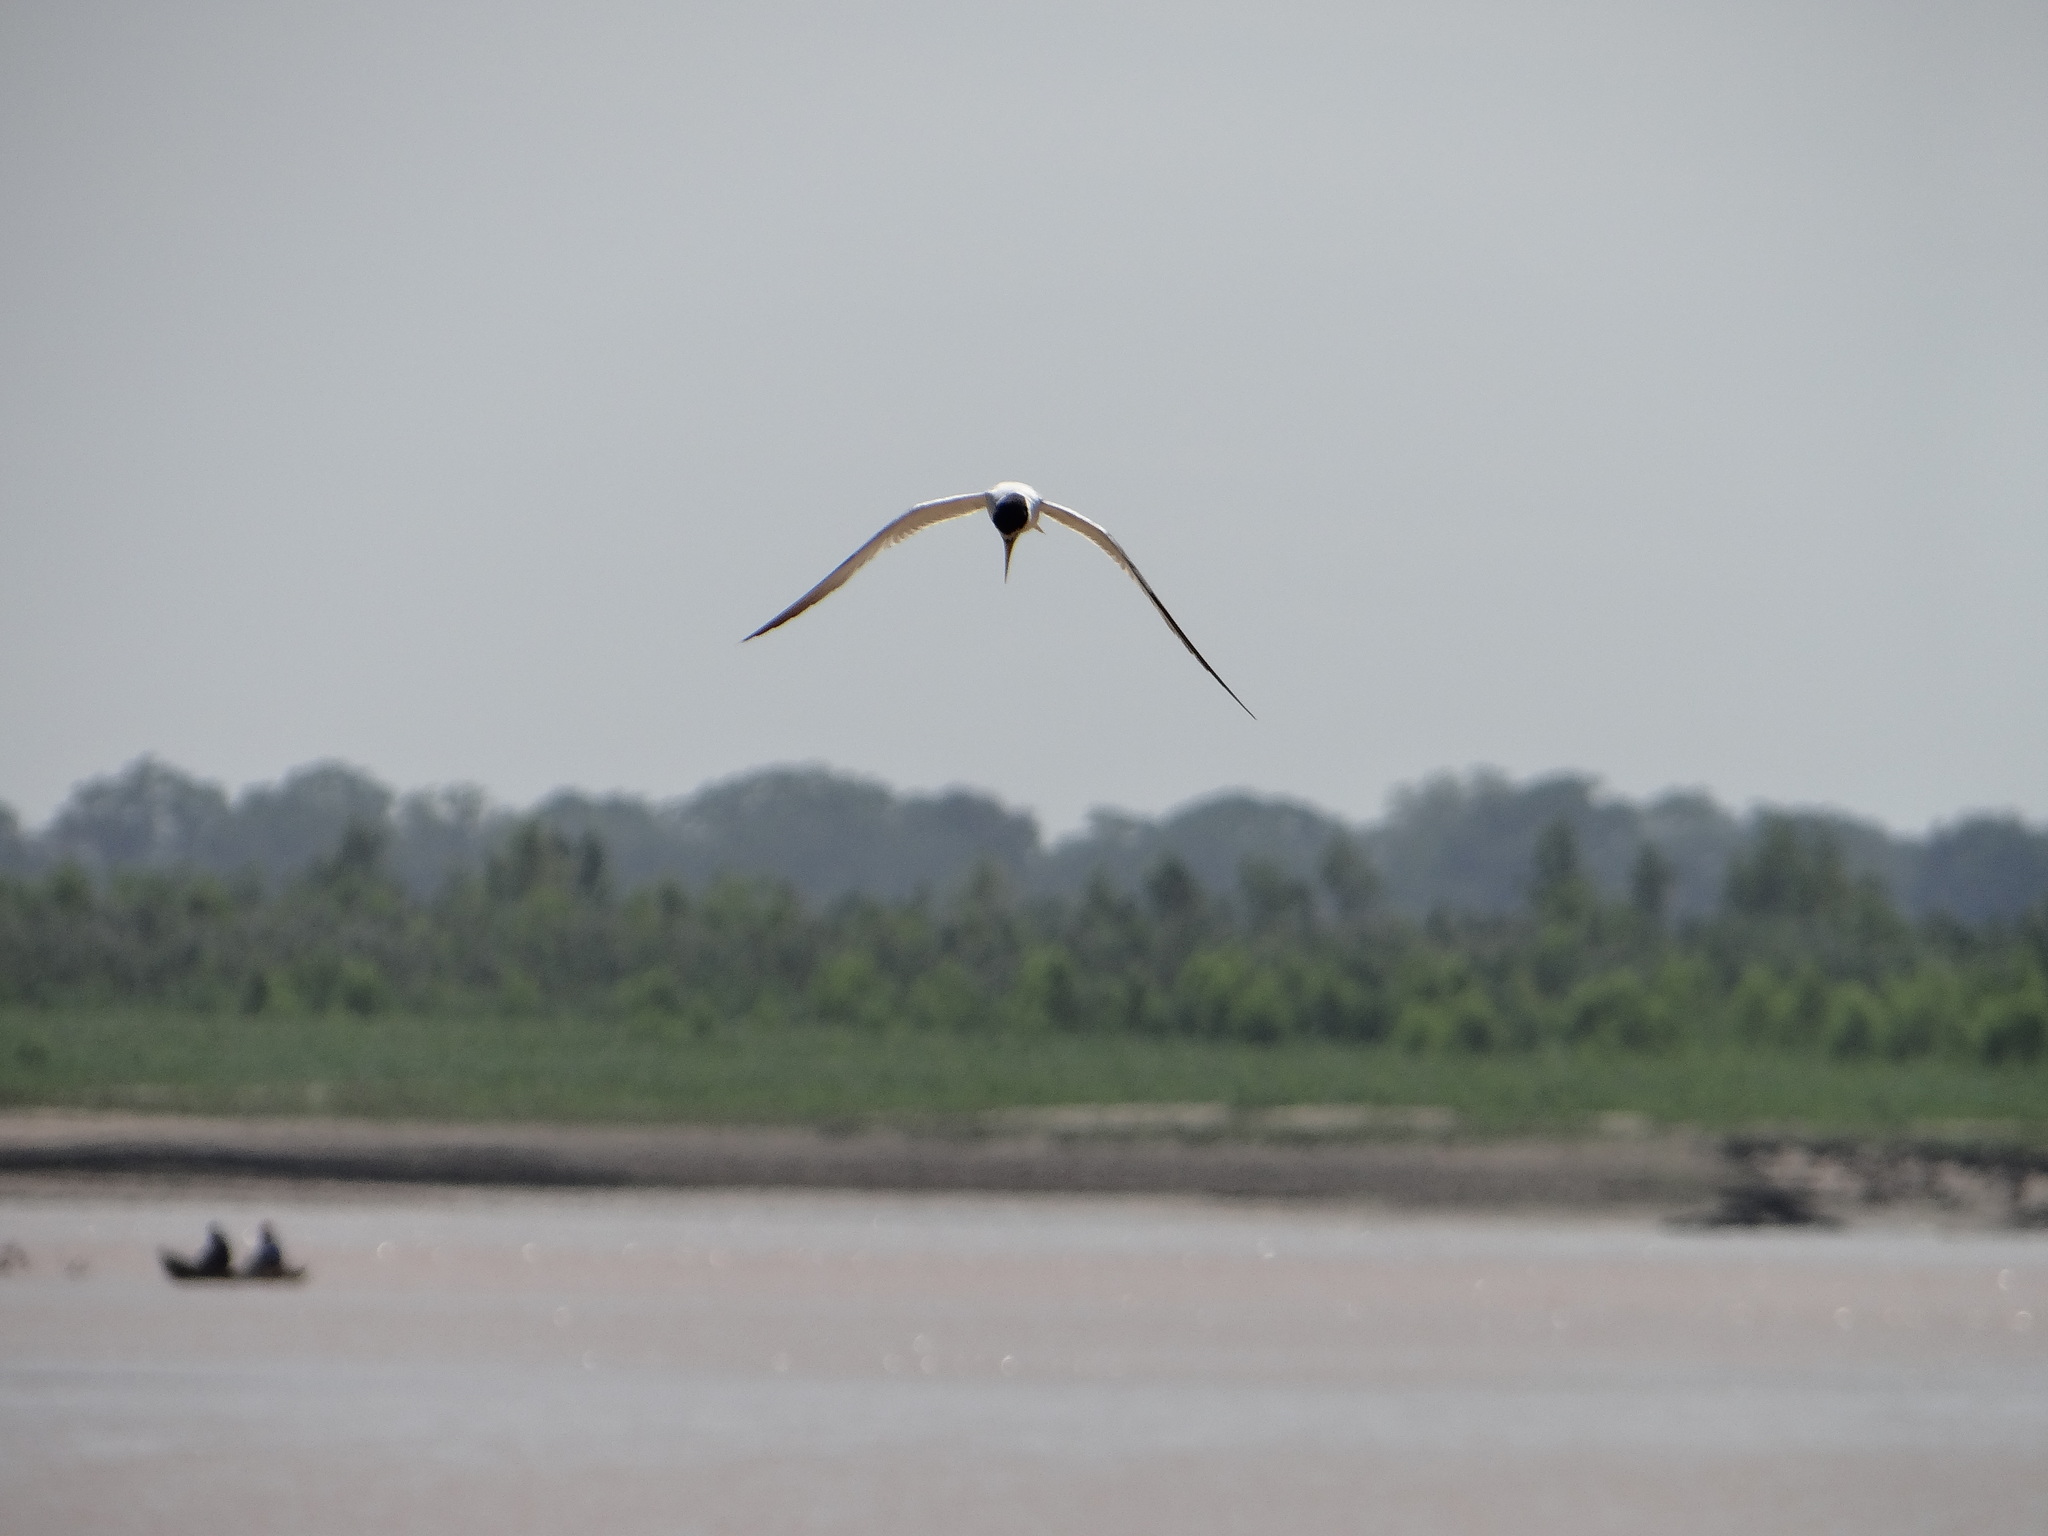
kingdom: Animalia
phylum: Chordata
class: Aves
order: Charadriiformes
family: Laridae
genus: Sternula
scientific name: Sternula superciliaris
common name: Yellow-billed tern
